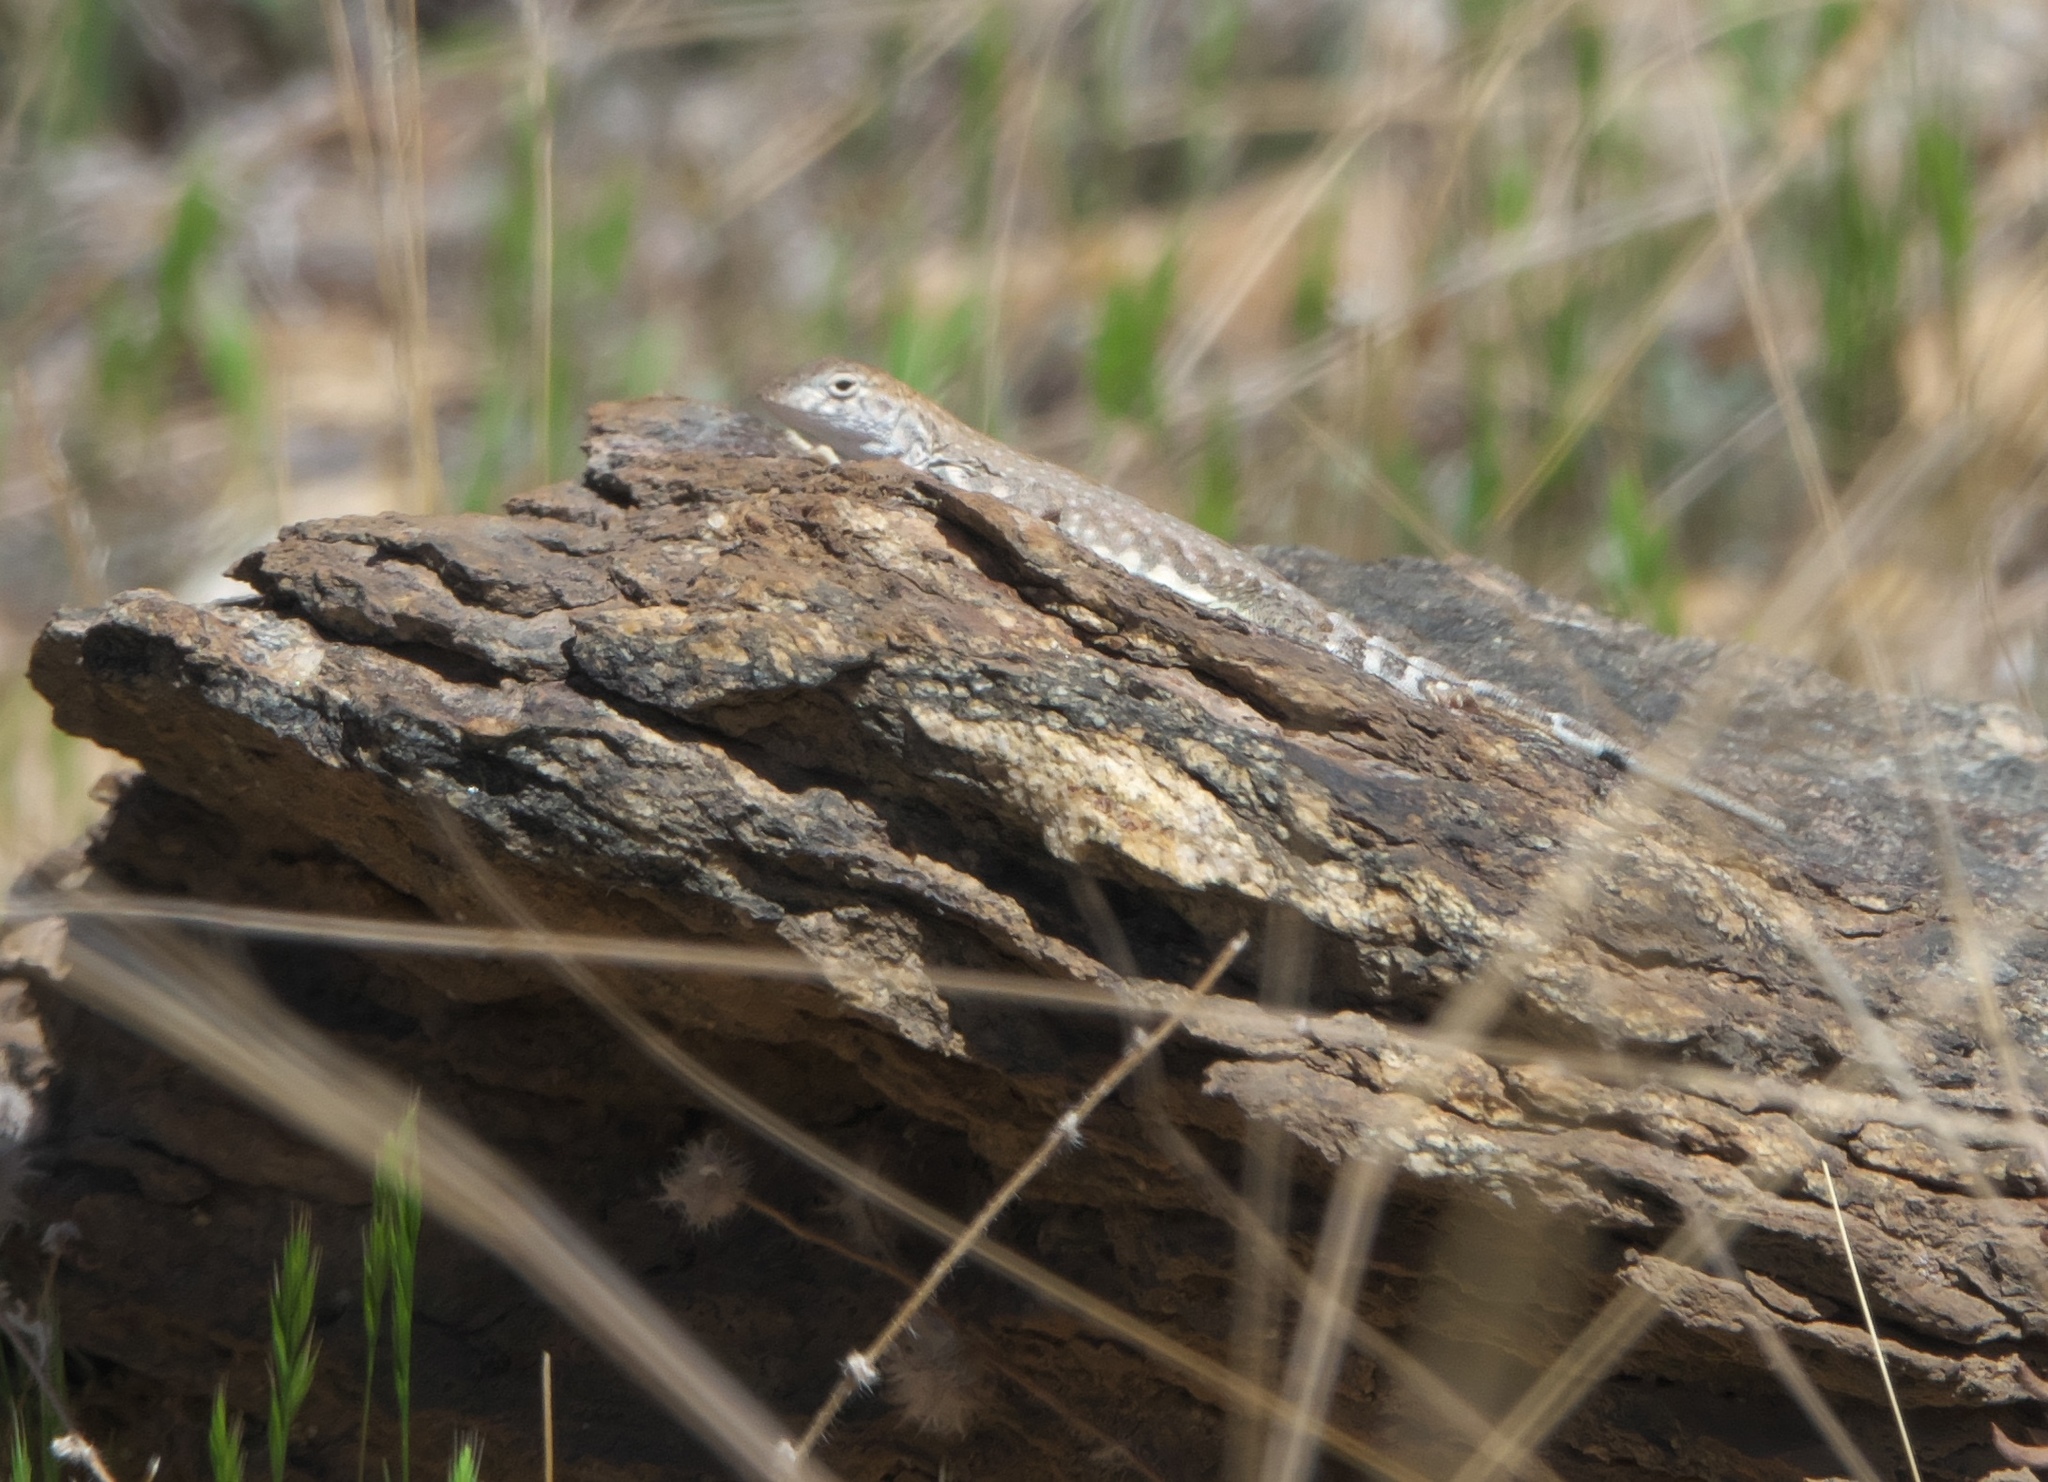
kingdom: Animalia
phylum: Chordata
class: Squamata
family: Phrynosomatidae
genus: Cophosaurus
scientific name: Cophosaurus texanus
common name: Greater earless lizard
